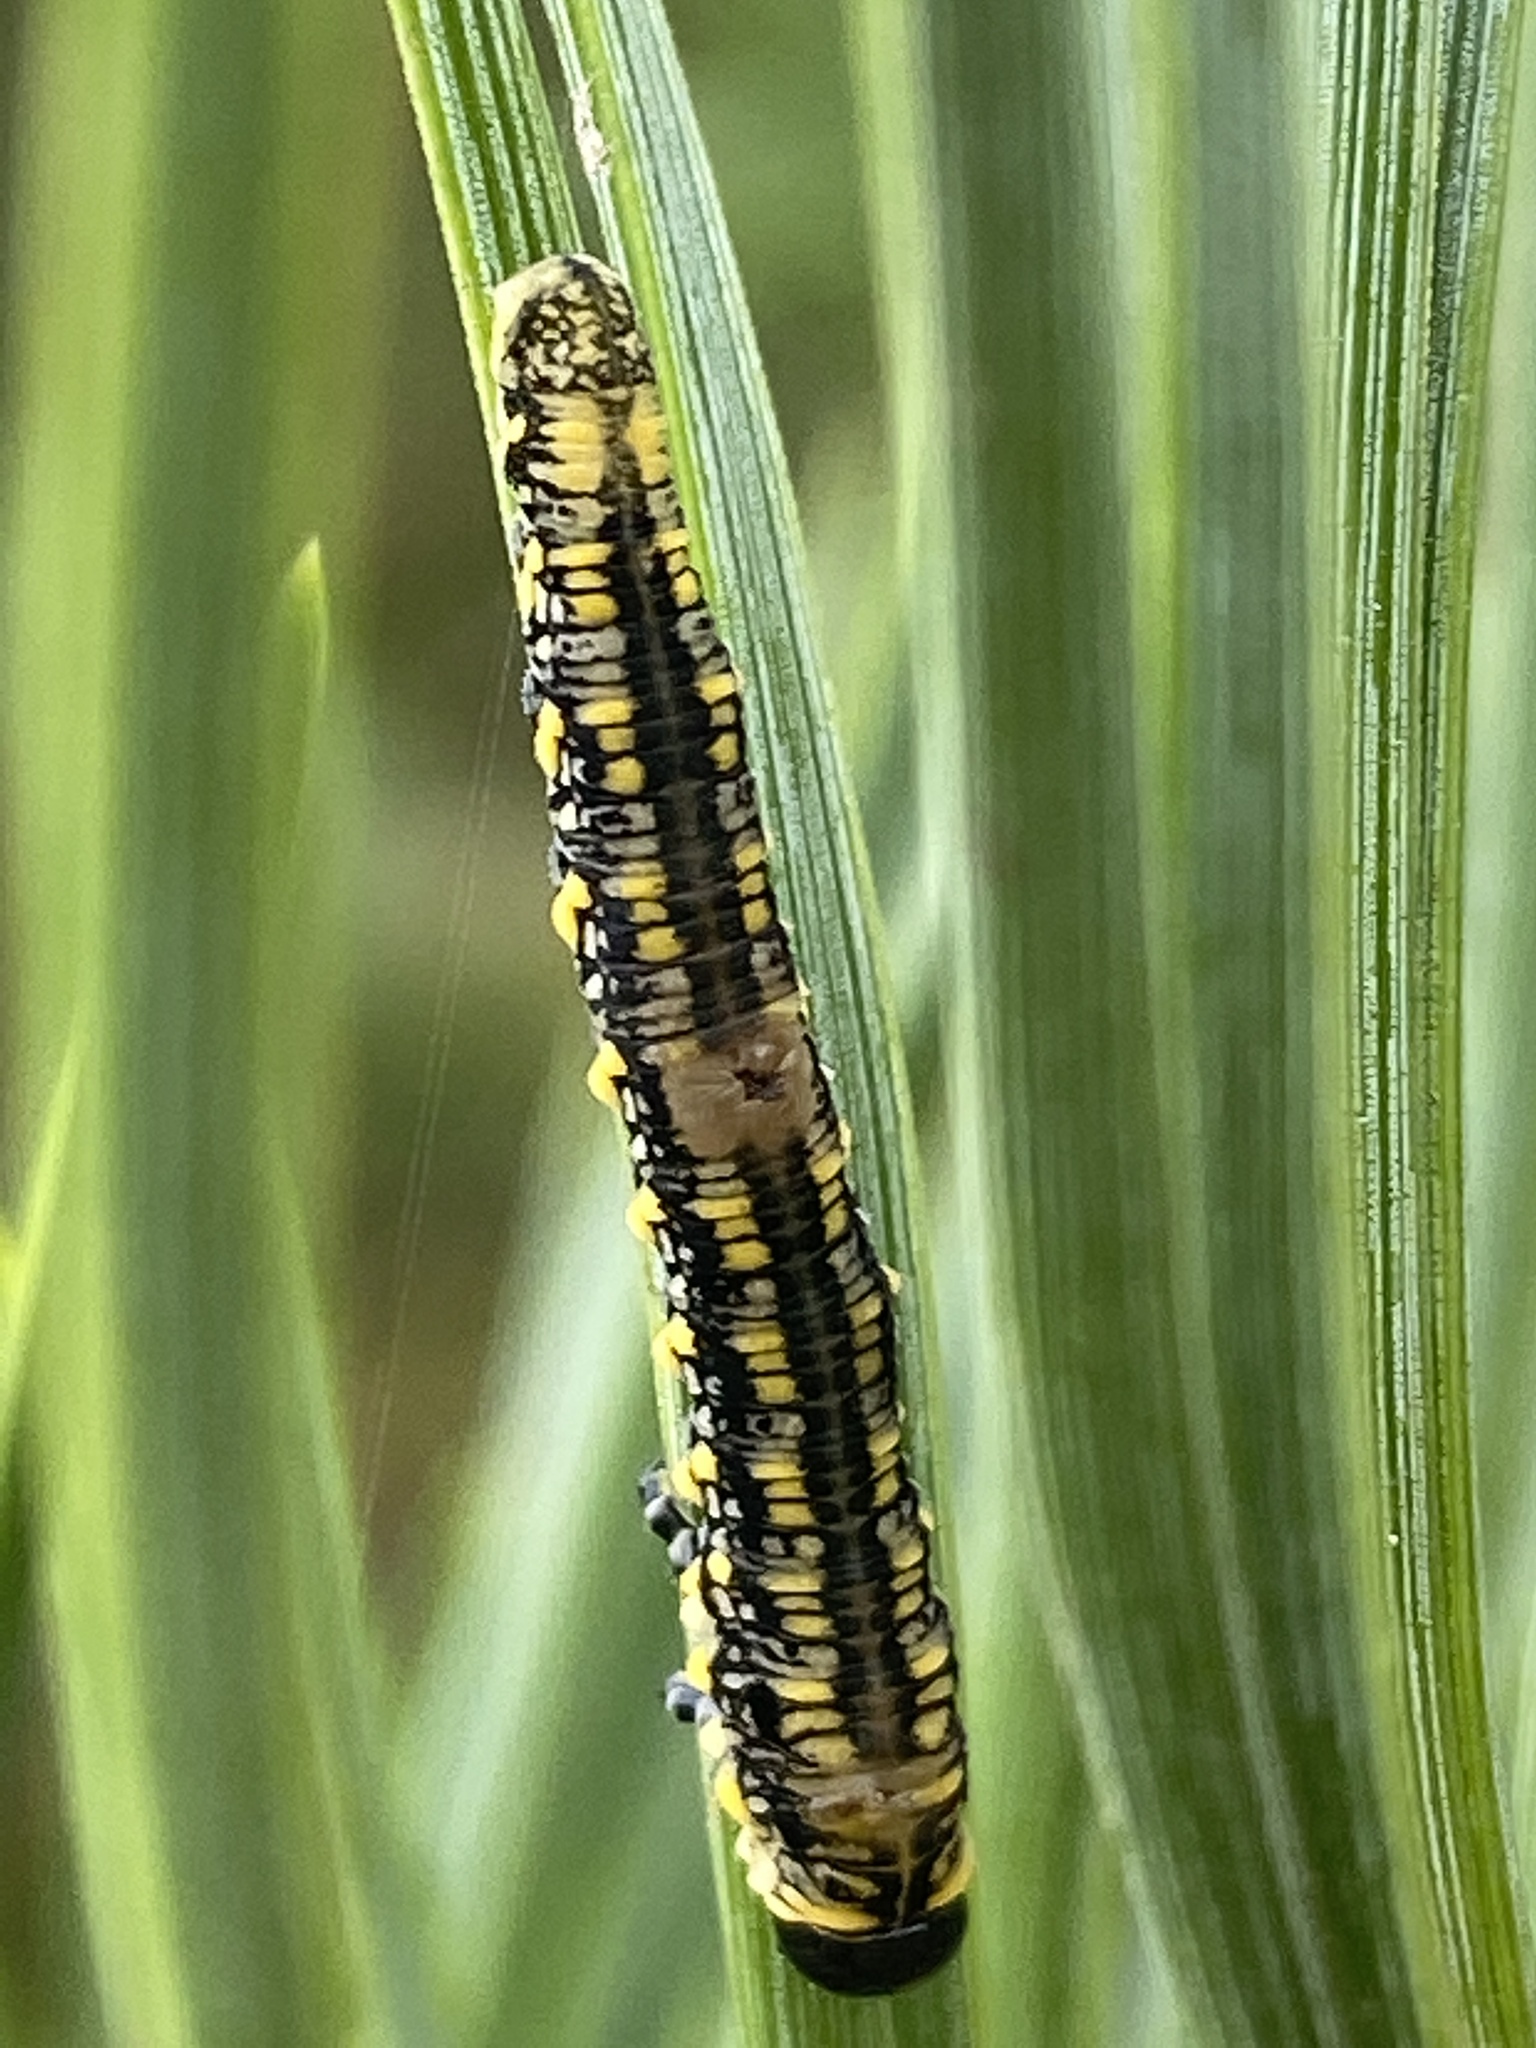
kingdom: Animalia
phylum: Arthropoda
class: Insecta
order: Hymenoptera
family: Diprionidae
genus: Diprion
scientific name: Diprion similis
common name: Pine sawfly
